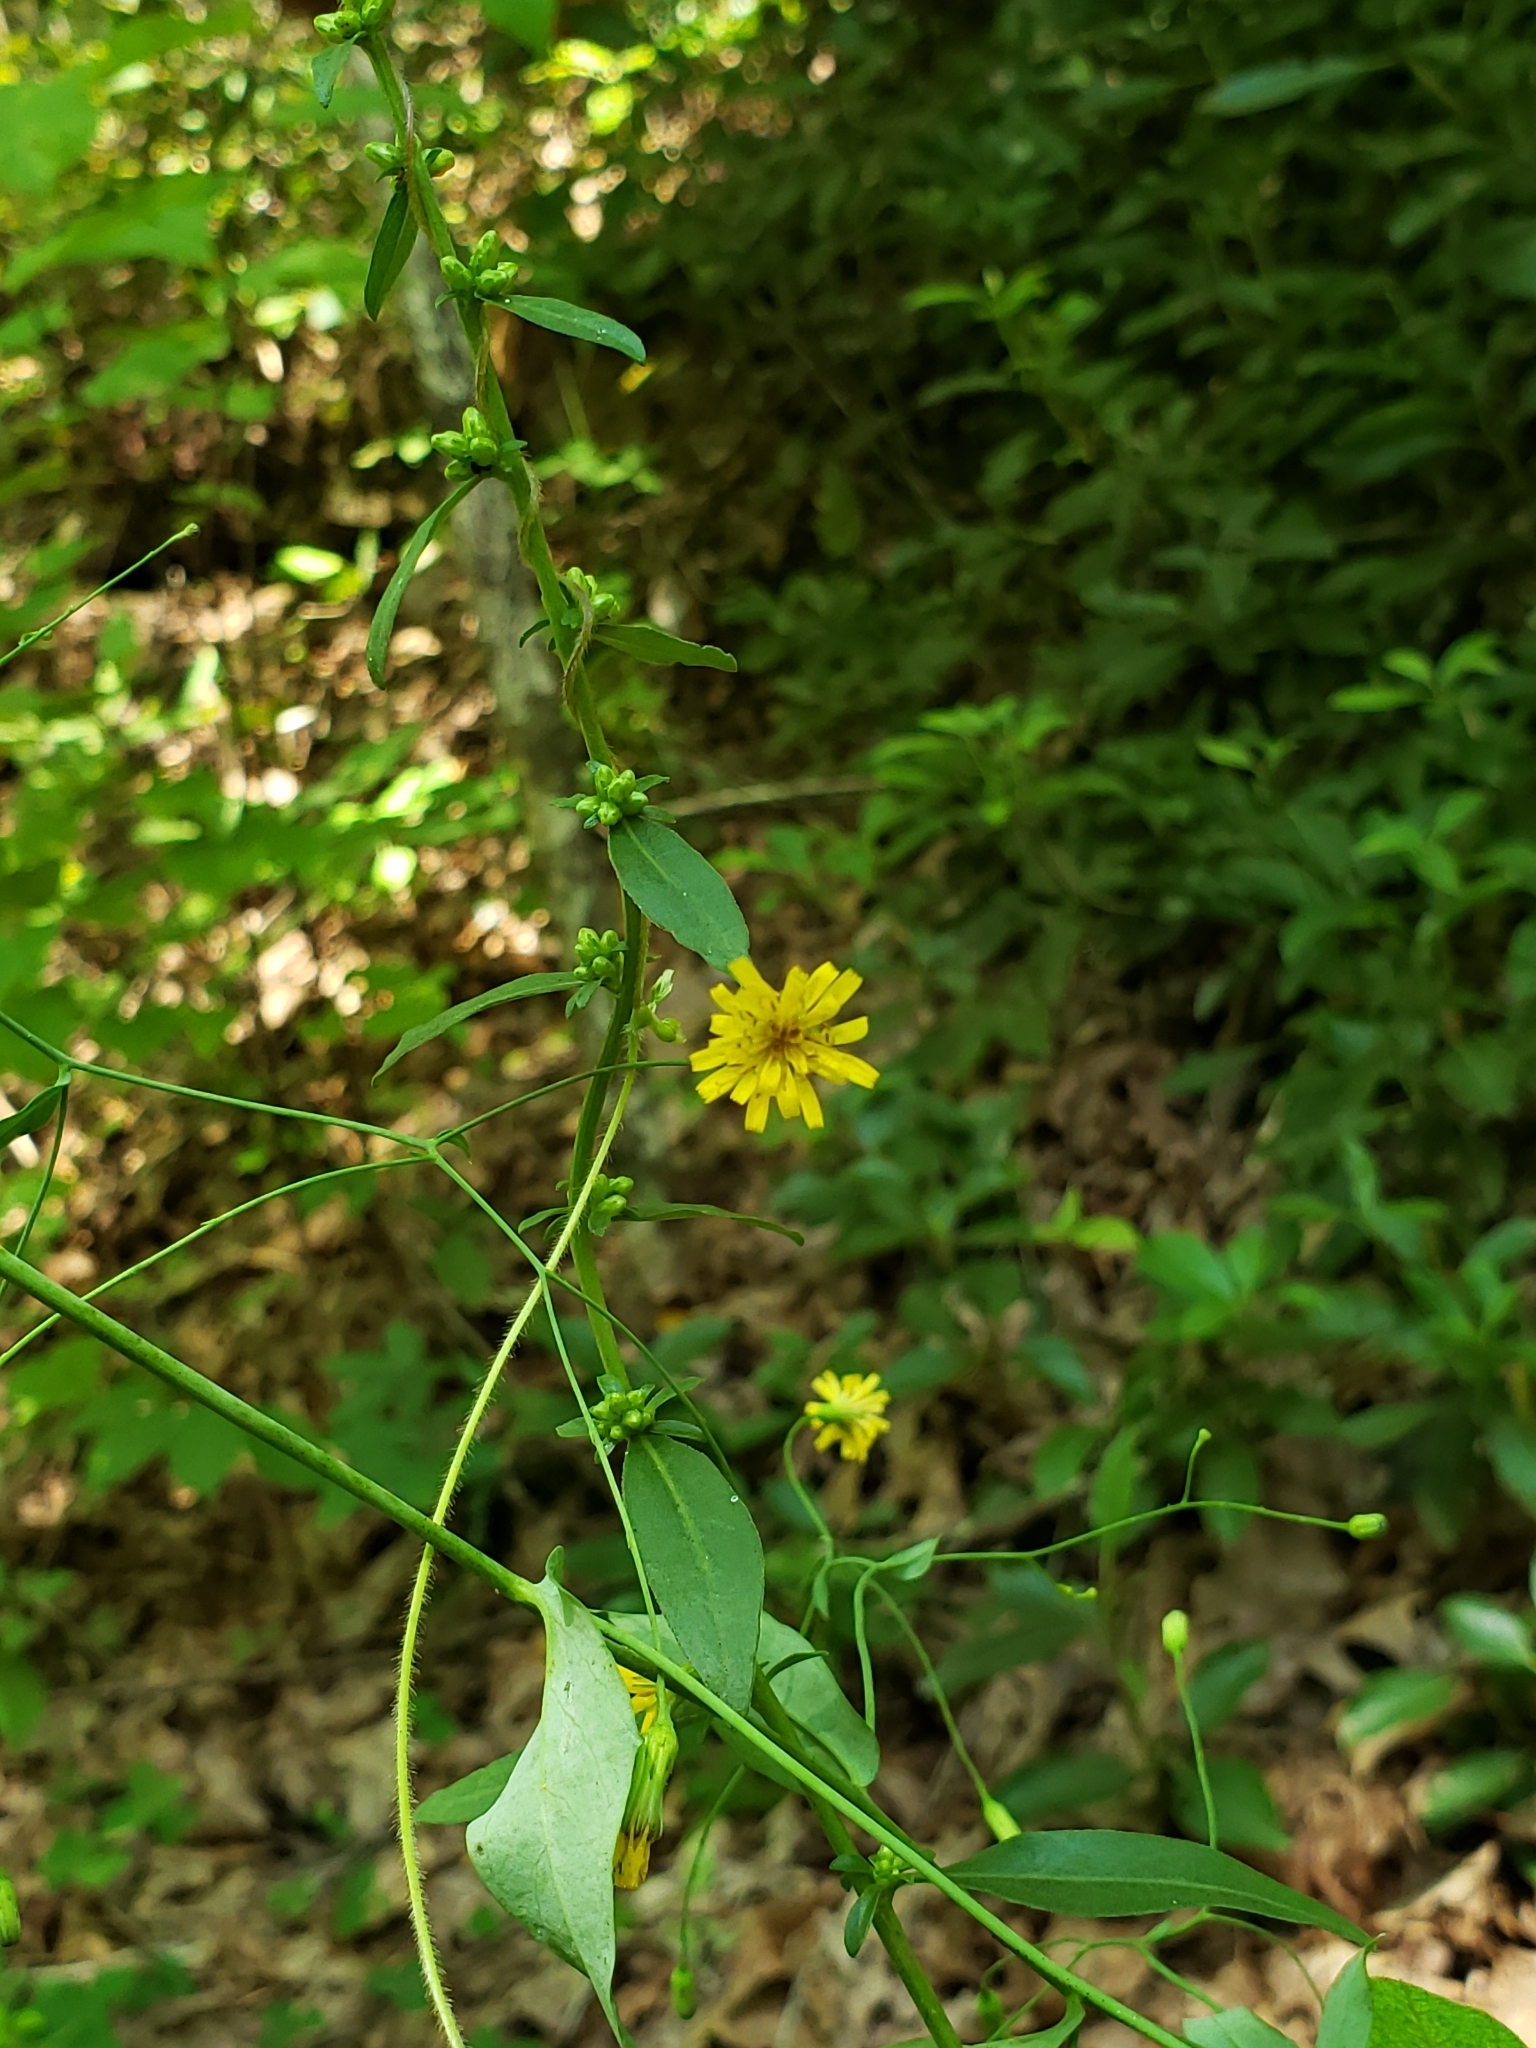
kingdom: Plantae
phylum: Tracheophyta
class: Magnoliopsida
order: Asterales
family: Asteraceae
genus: Hieracium
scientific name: Hieracium paniculatum
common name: Allegheny hawkweed
